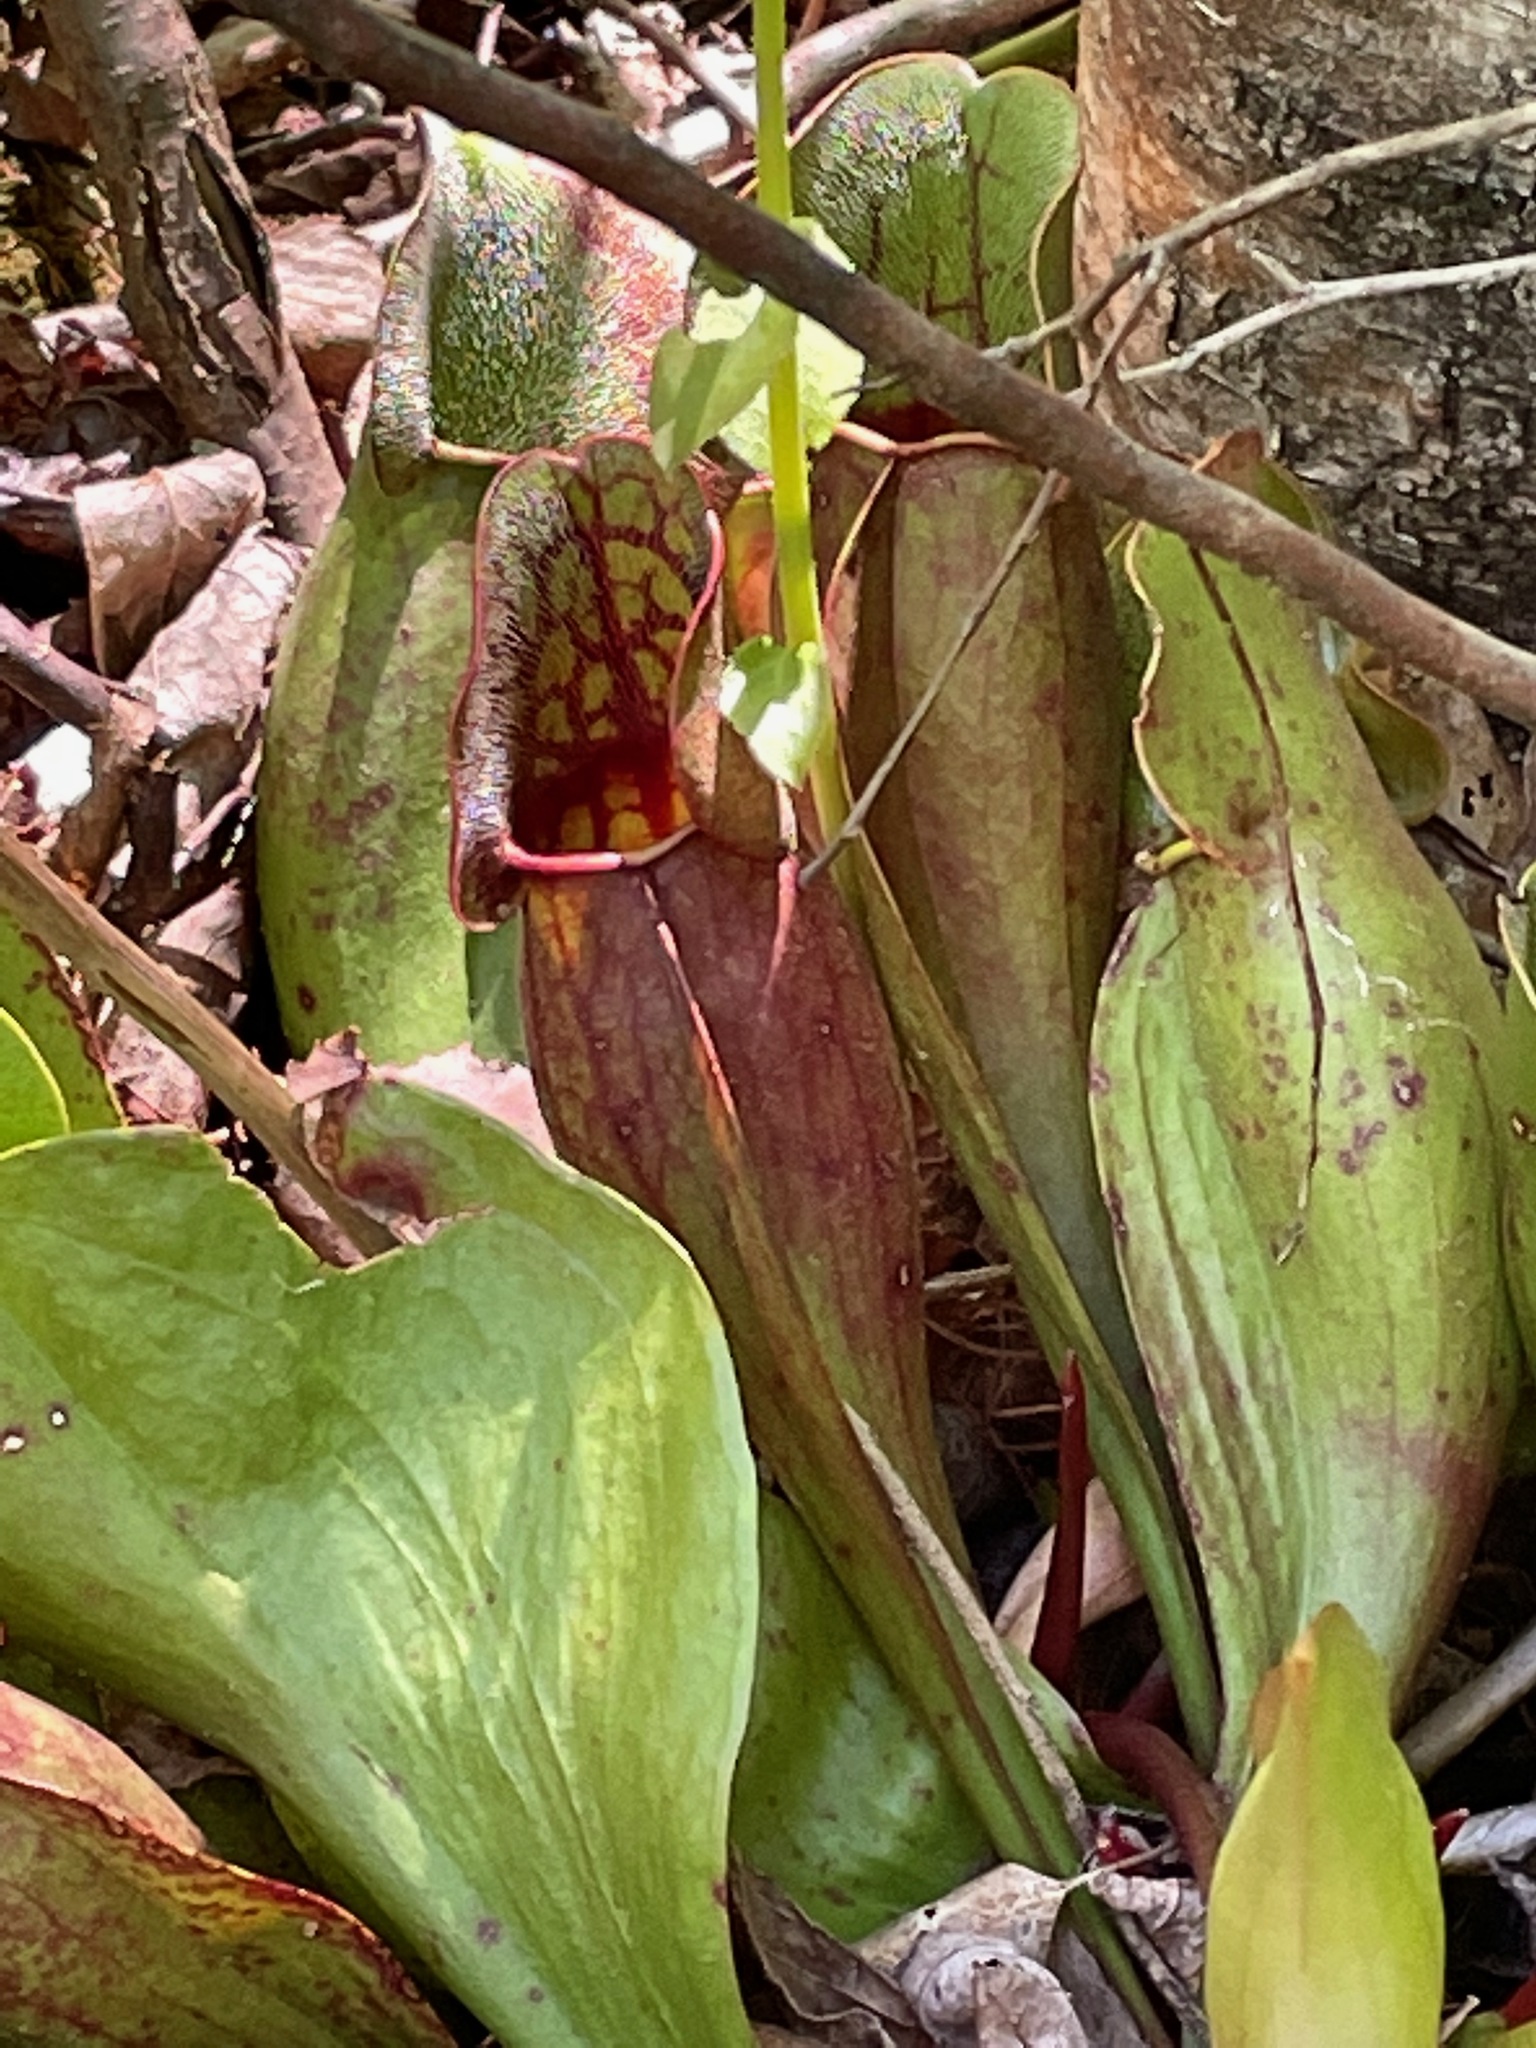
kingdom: Plantae
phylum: Tracheophyta
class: Magnoliopsida
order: Ericales
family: Sarraceniaceae
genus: Sarracenia
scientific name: Sarracenia purpurea
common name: Pitcherplant
